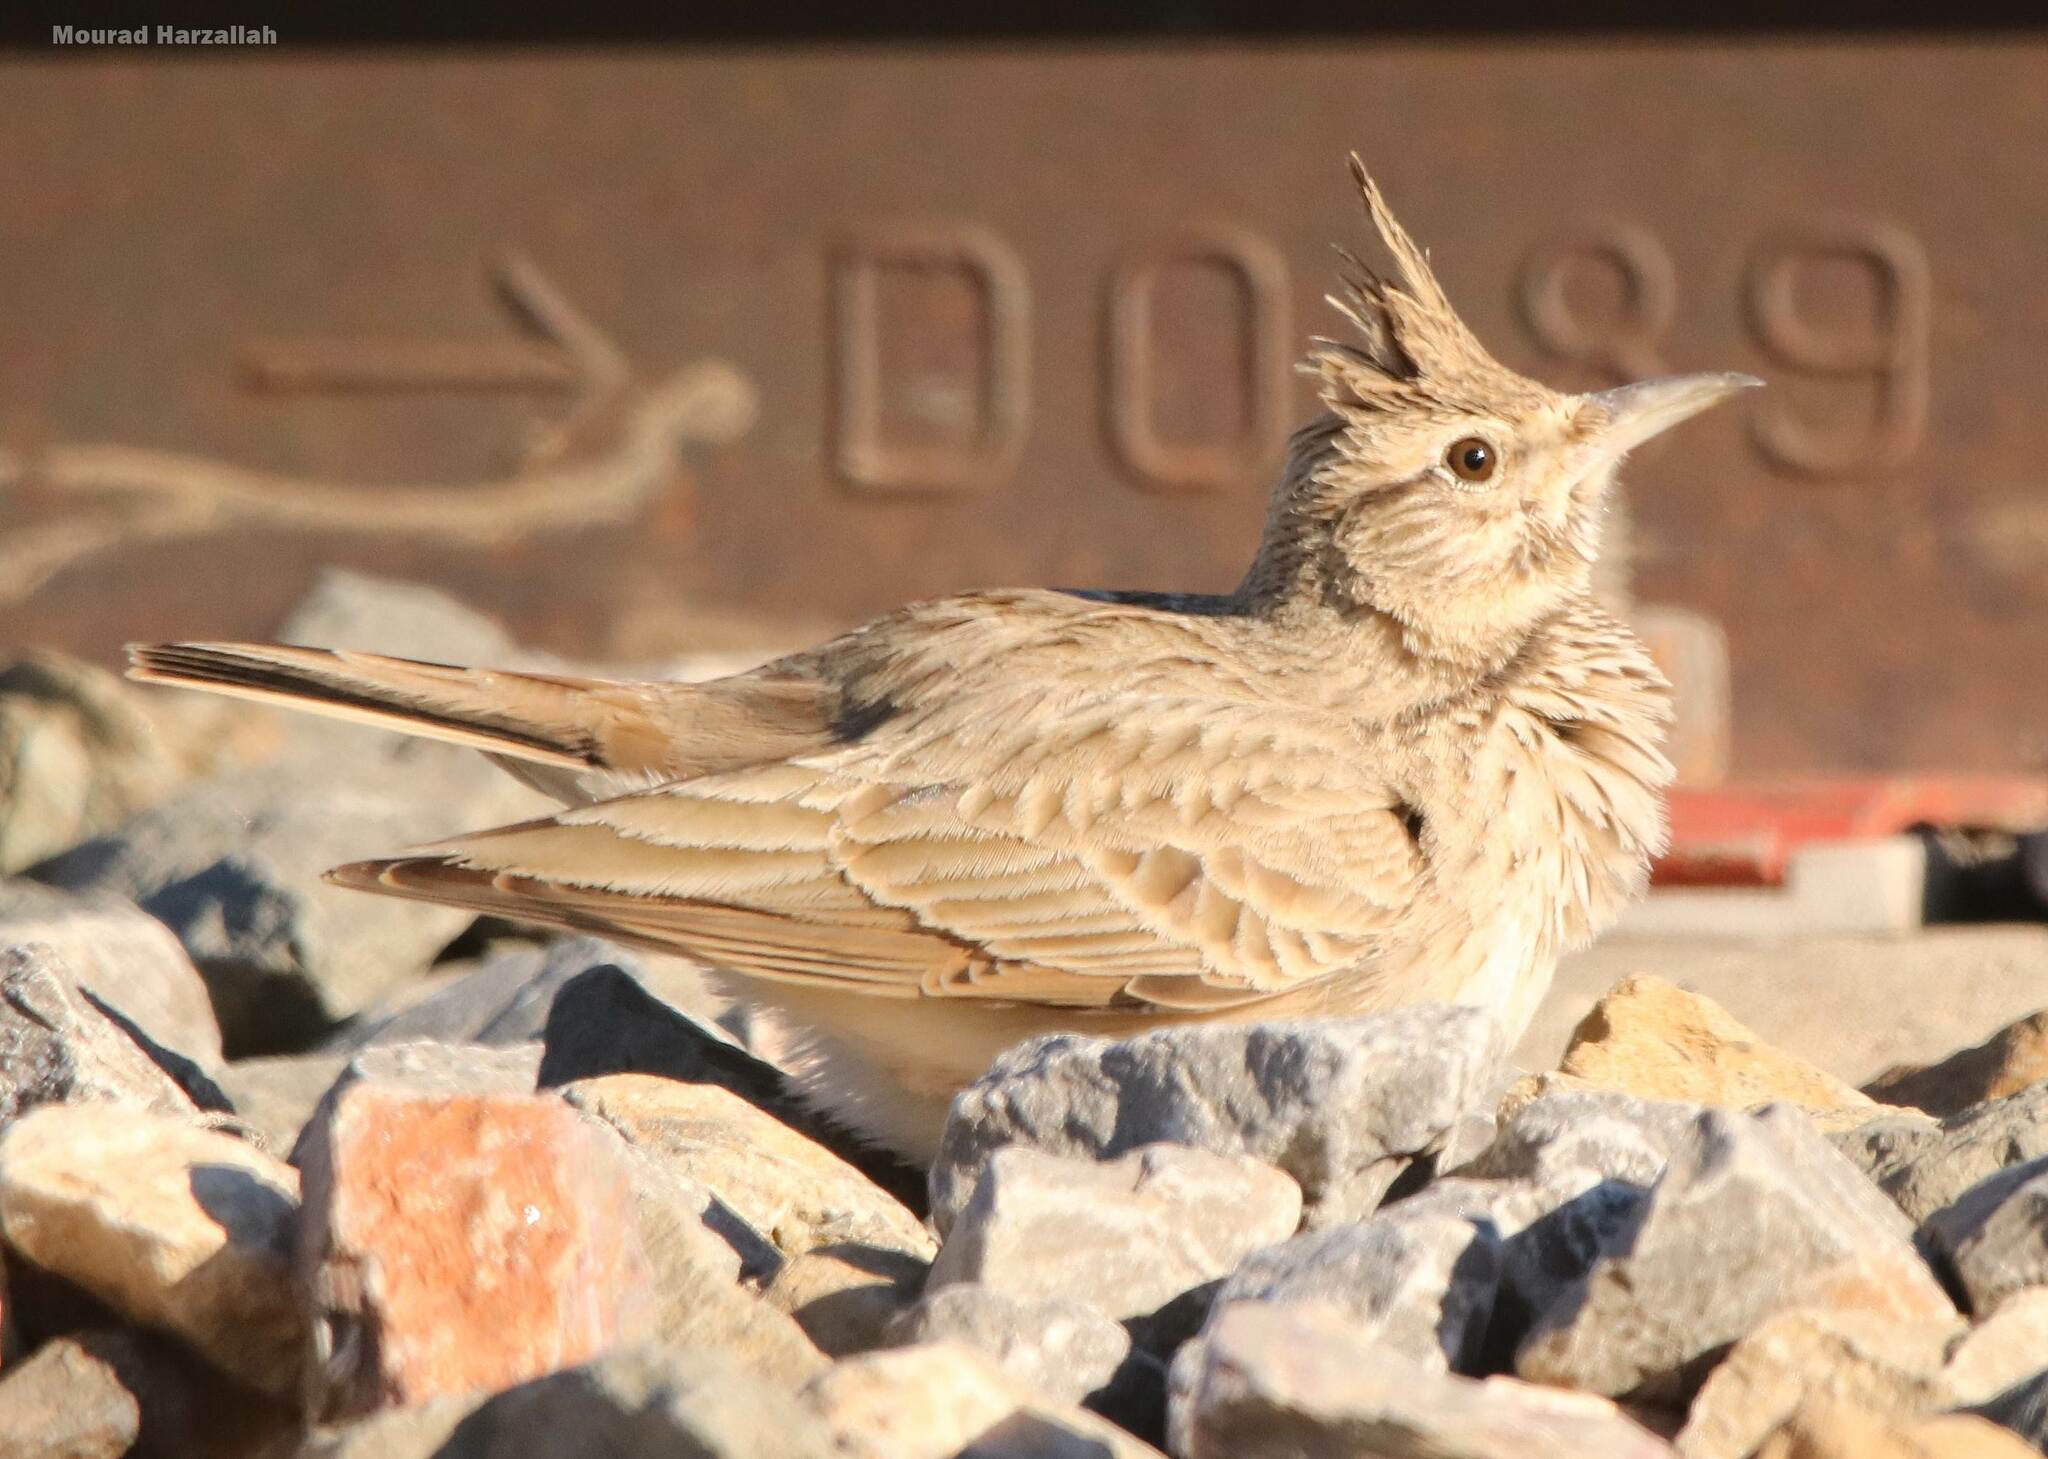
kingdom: Animalia
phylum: Chordata
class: Aves
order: Passeriformes
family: Alaudidae
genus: Galerida
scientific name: Galerida cristata
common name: Crested lark
